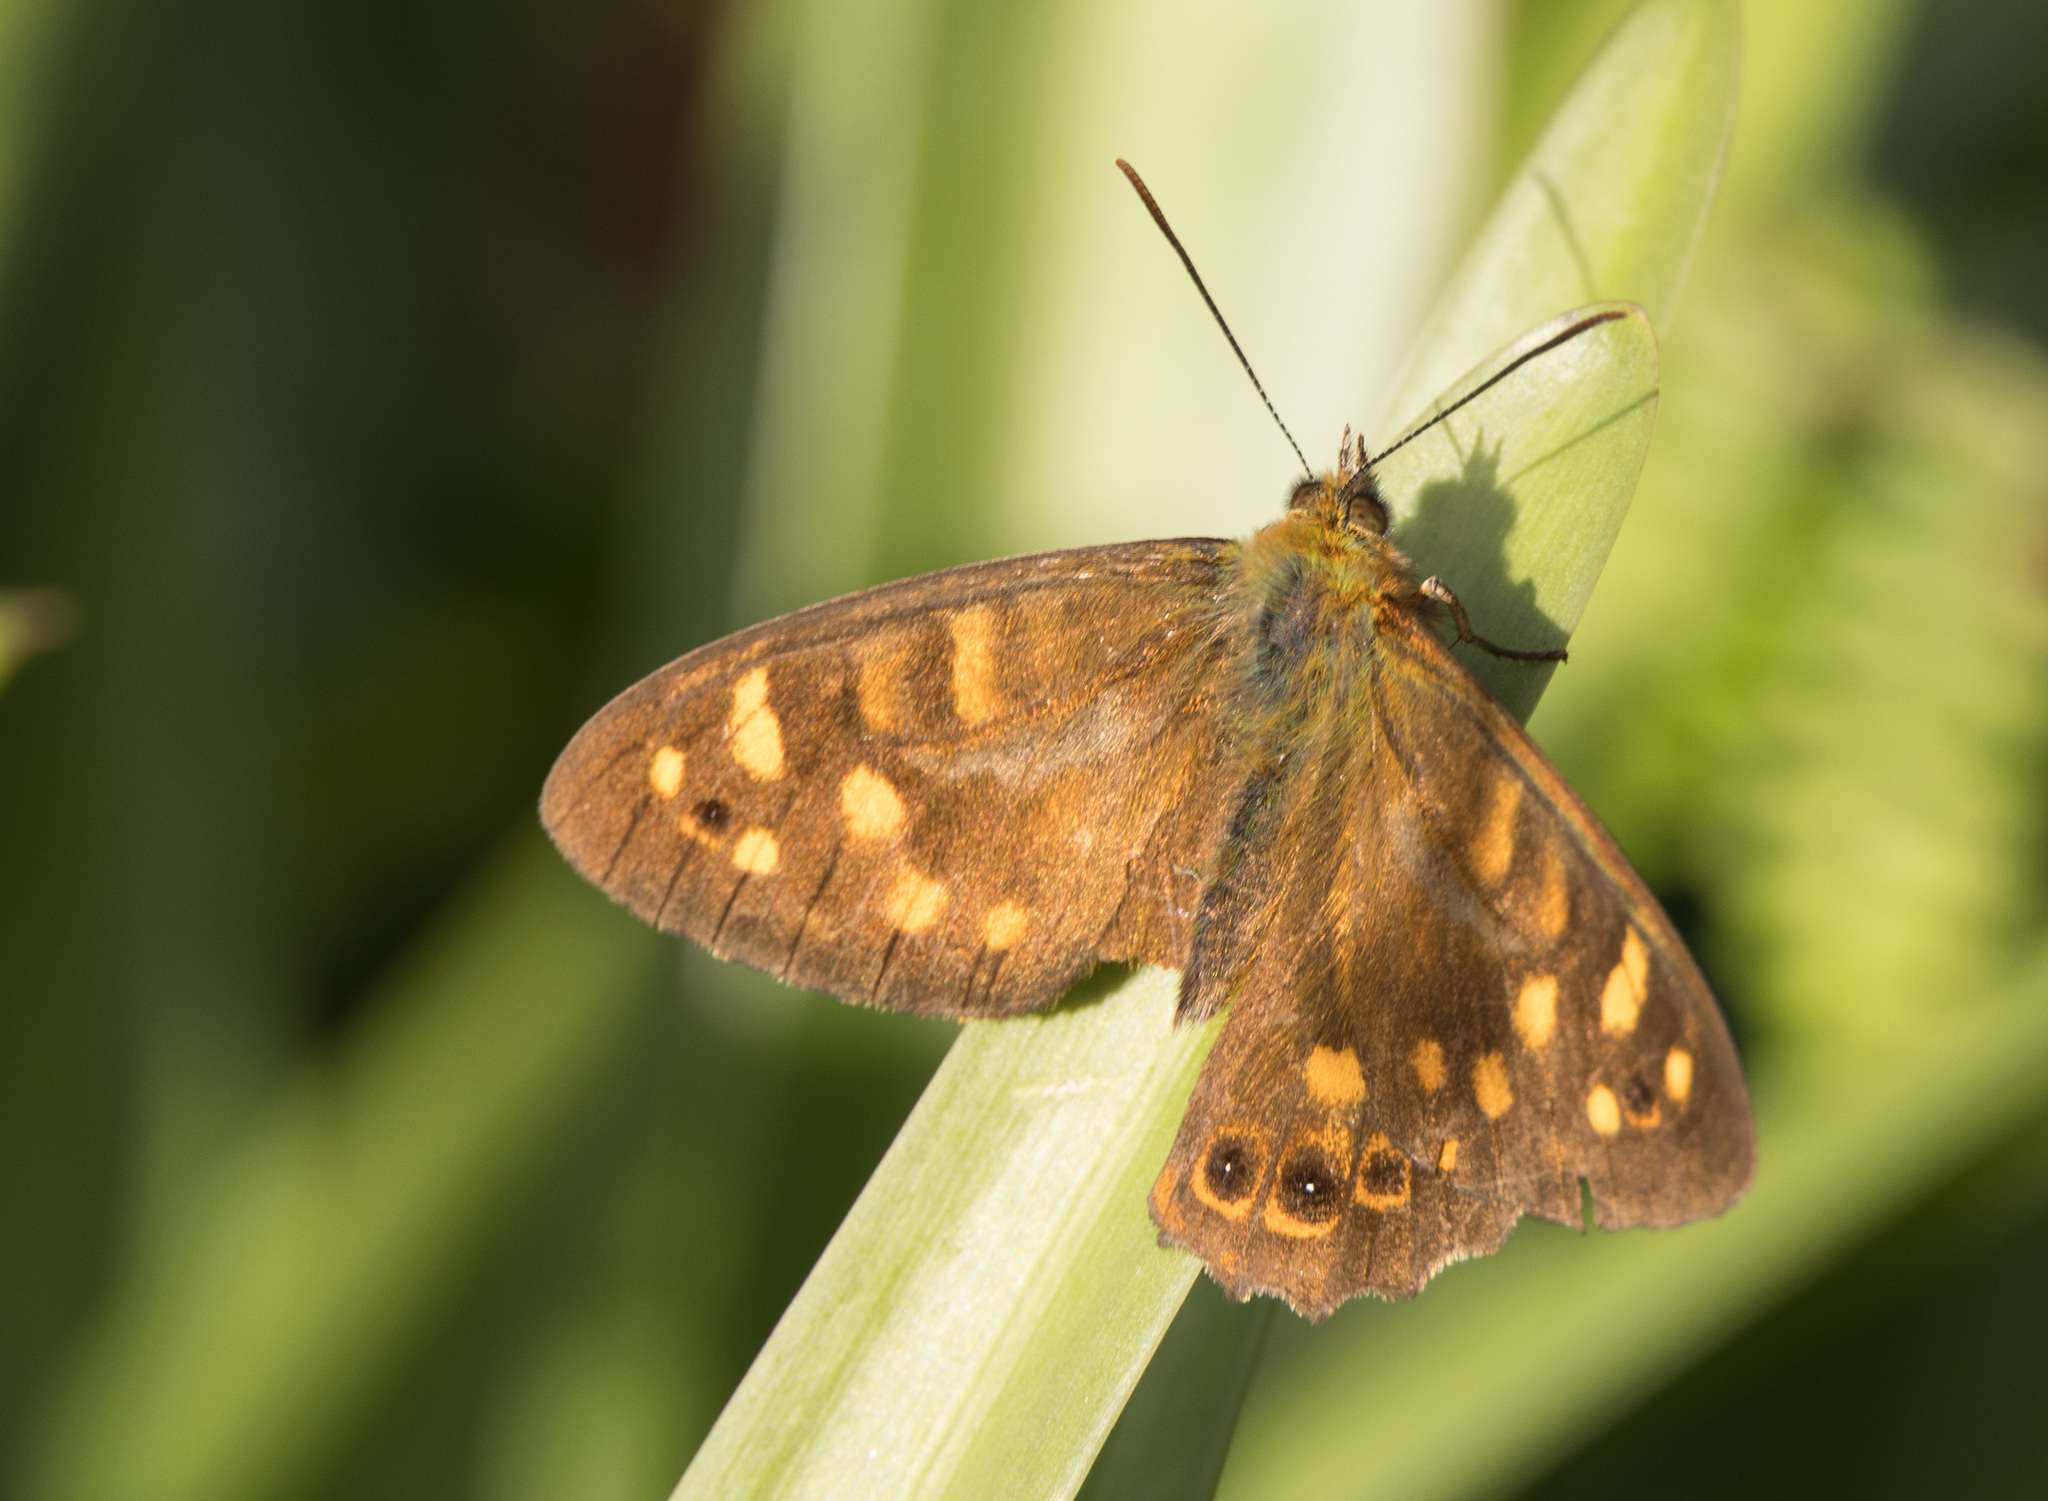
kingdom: Animalia
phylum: Arthropoda
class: Insecta
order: Lepidoptera
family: Nymphalidae
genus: Pararge
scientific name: Pararge
